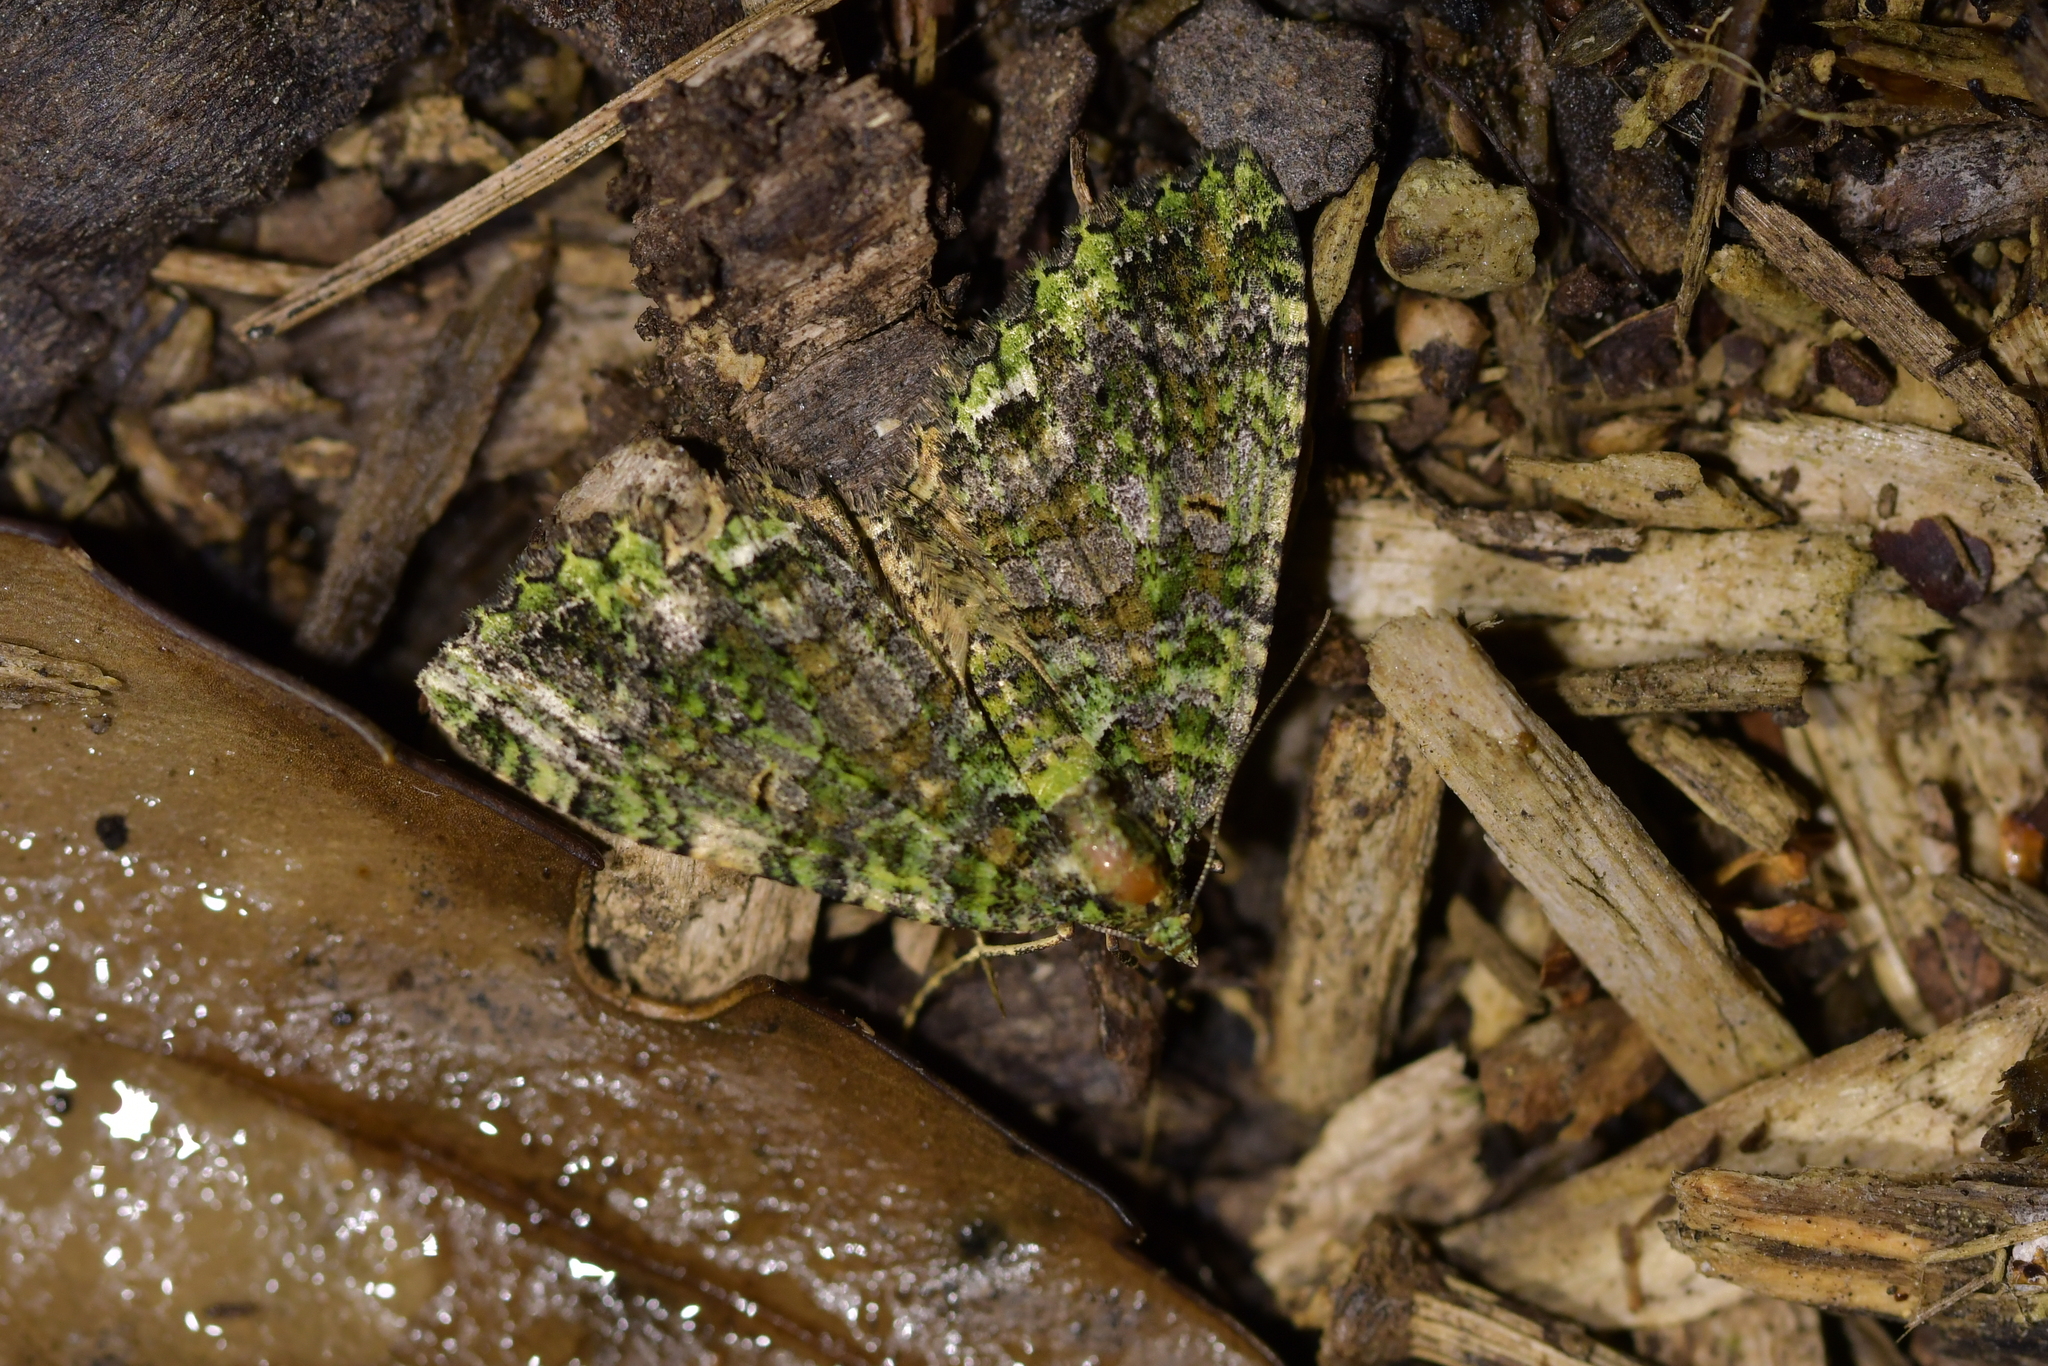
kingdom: Animalia
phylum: Arthropoda
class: Insecta
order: Lepidoptera
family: Geometridae
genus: Austrocidaria
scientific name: Austrocidaria similata
